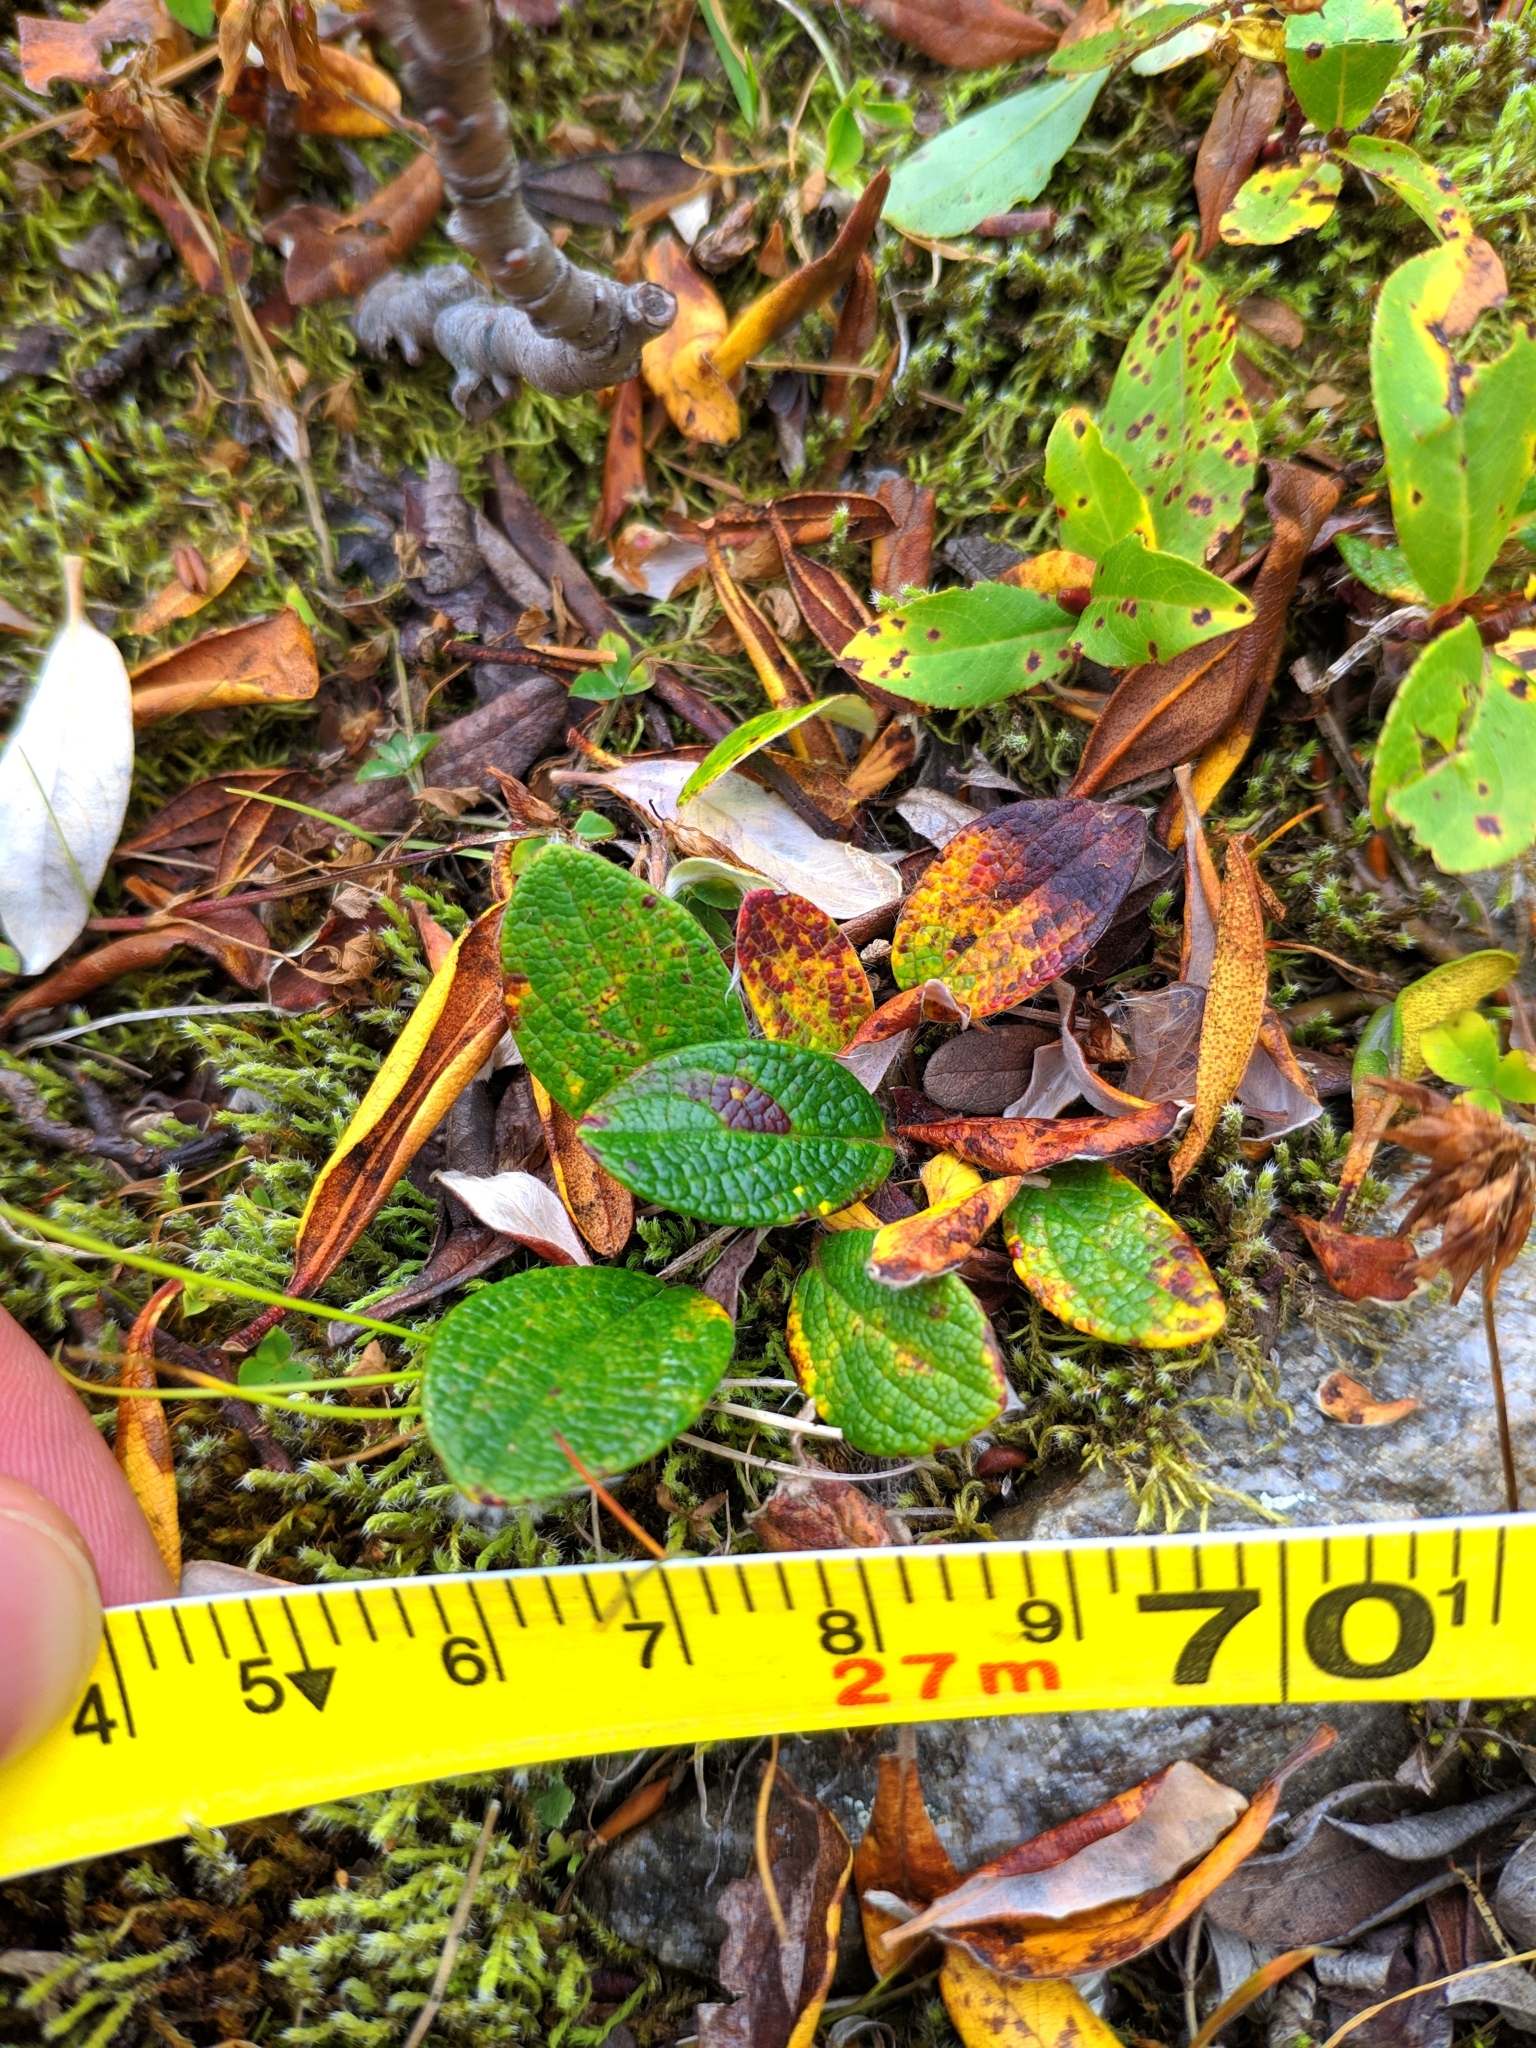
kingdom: Plantae
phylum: Tracheophyta
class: Magnoliopsida
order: Malpighiales
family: Salicaceae
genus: Salix
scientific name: Salix reticulata
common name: Net-leaved willow
